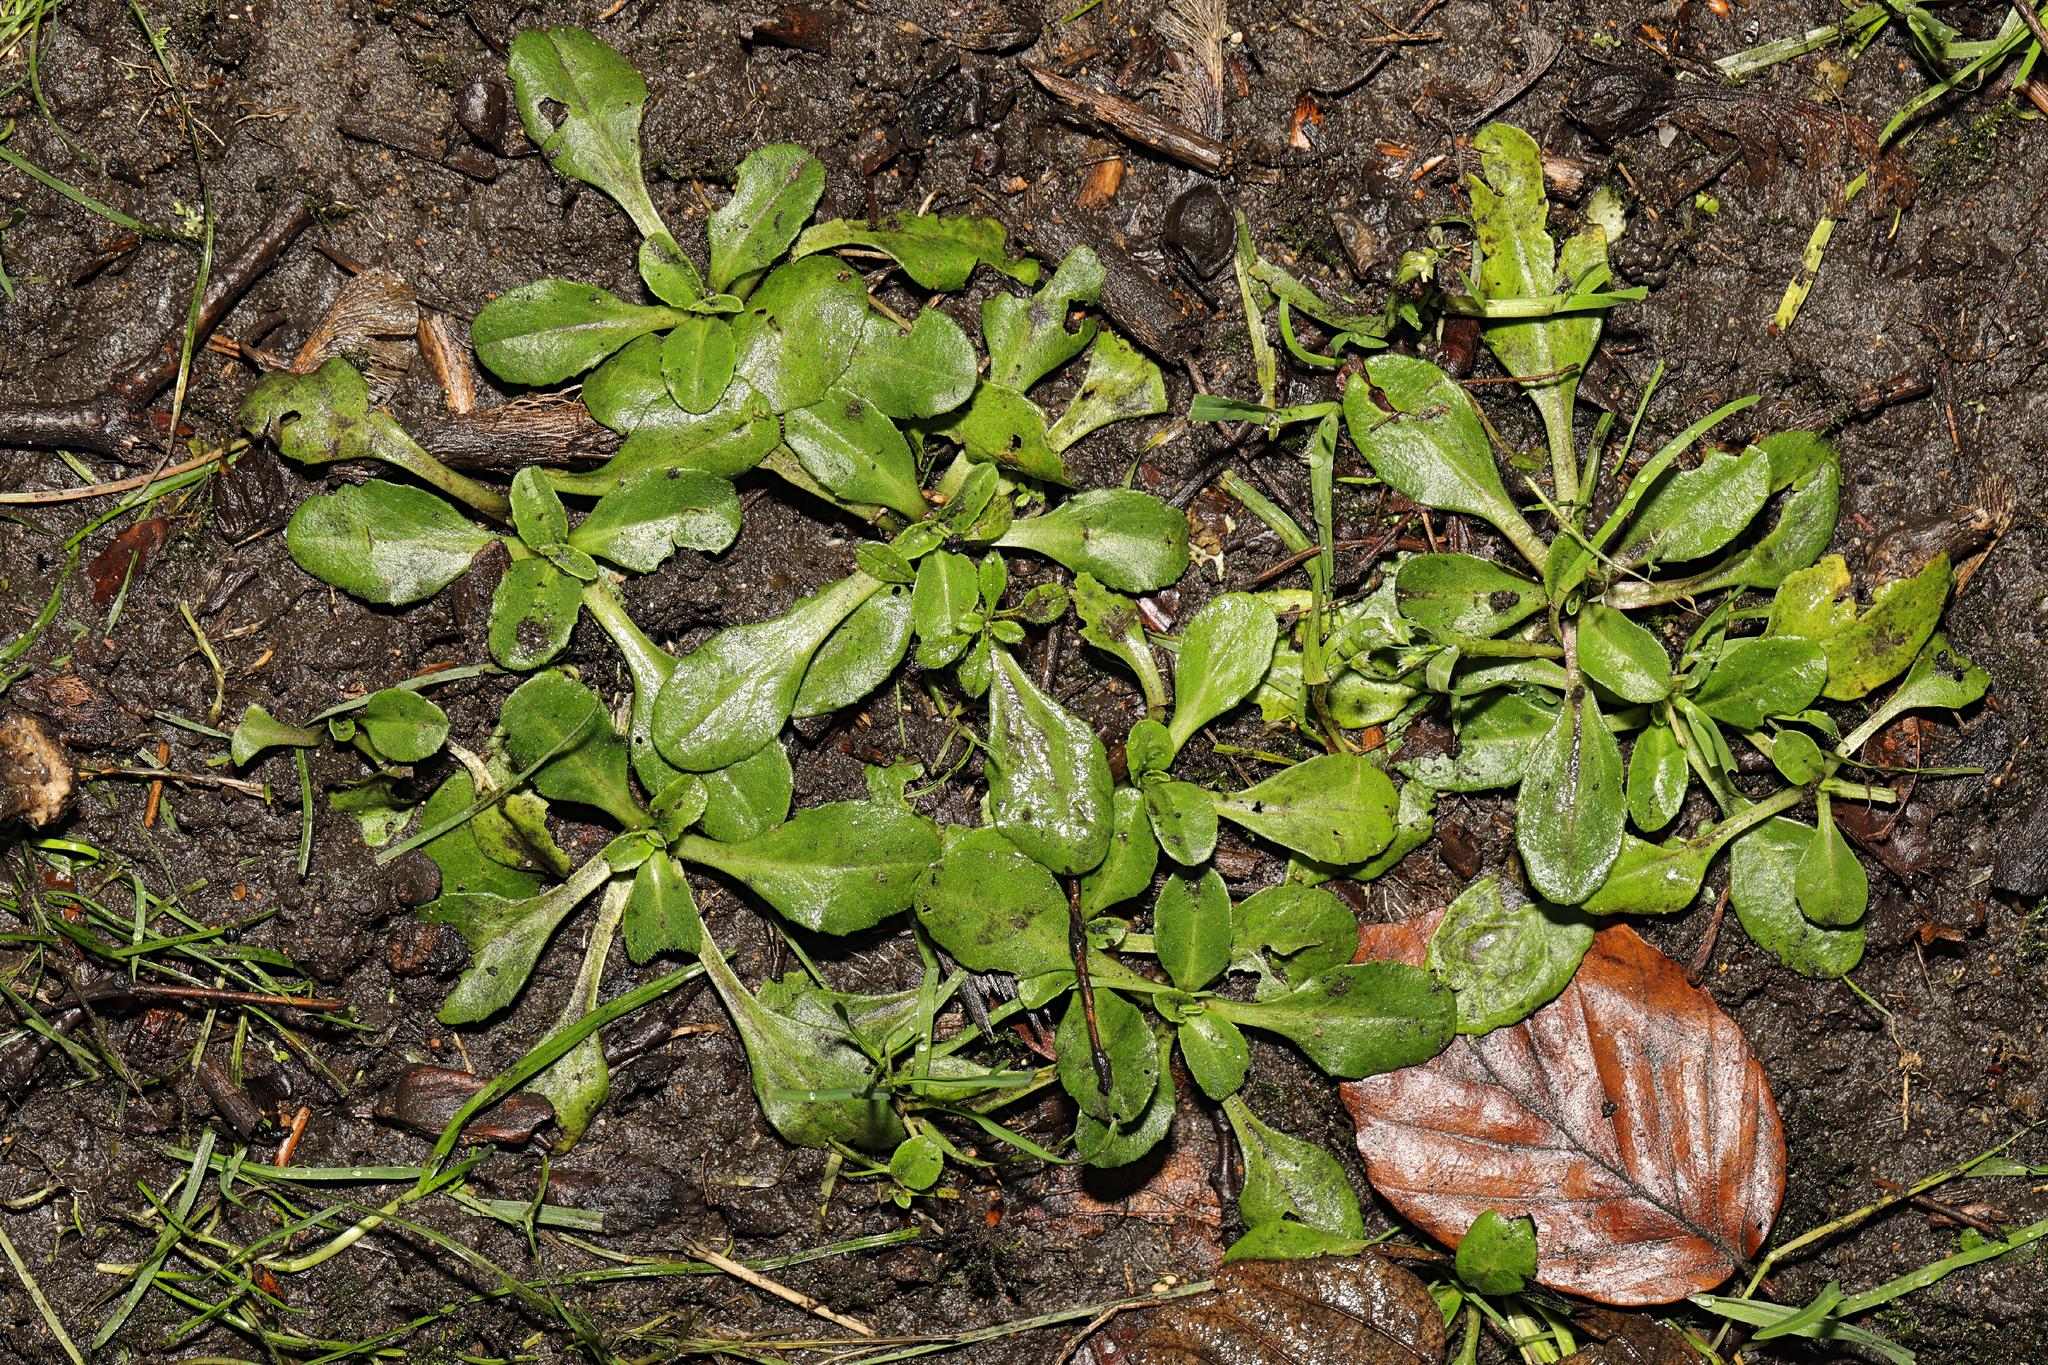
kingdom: Plantae
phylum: Tracheophyta
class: Magnoliopsida
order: Asterales
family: Asteraceae
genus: Bellis
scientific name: Bellis perennis
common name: Lawndaisy
